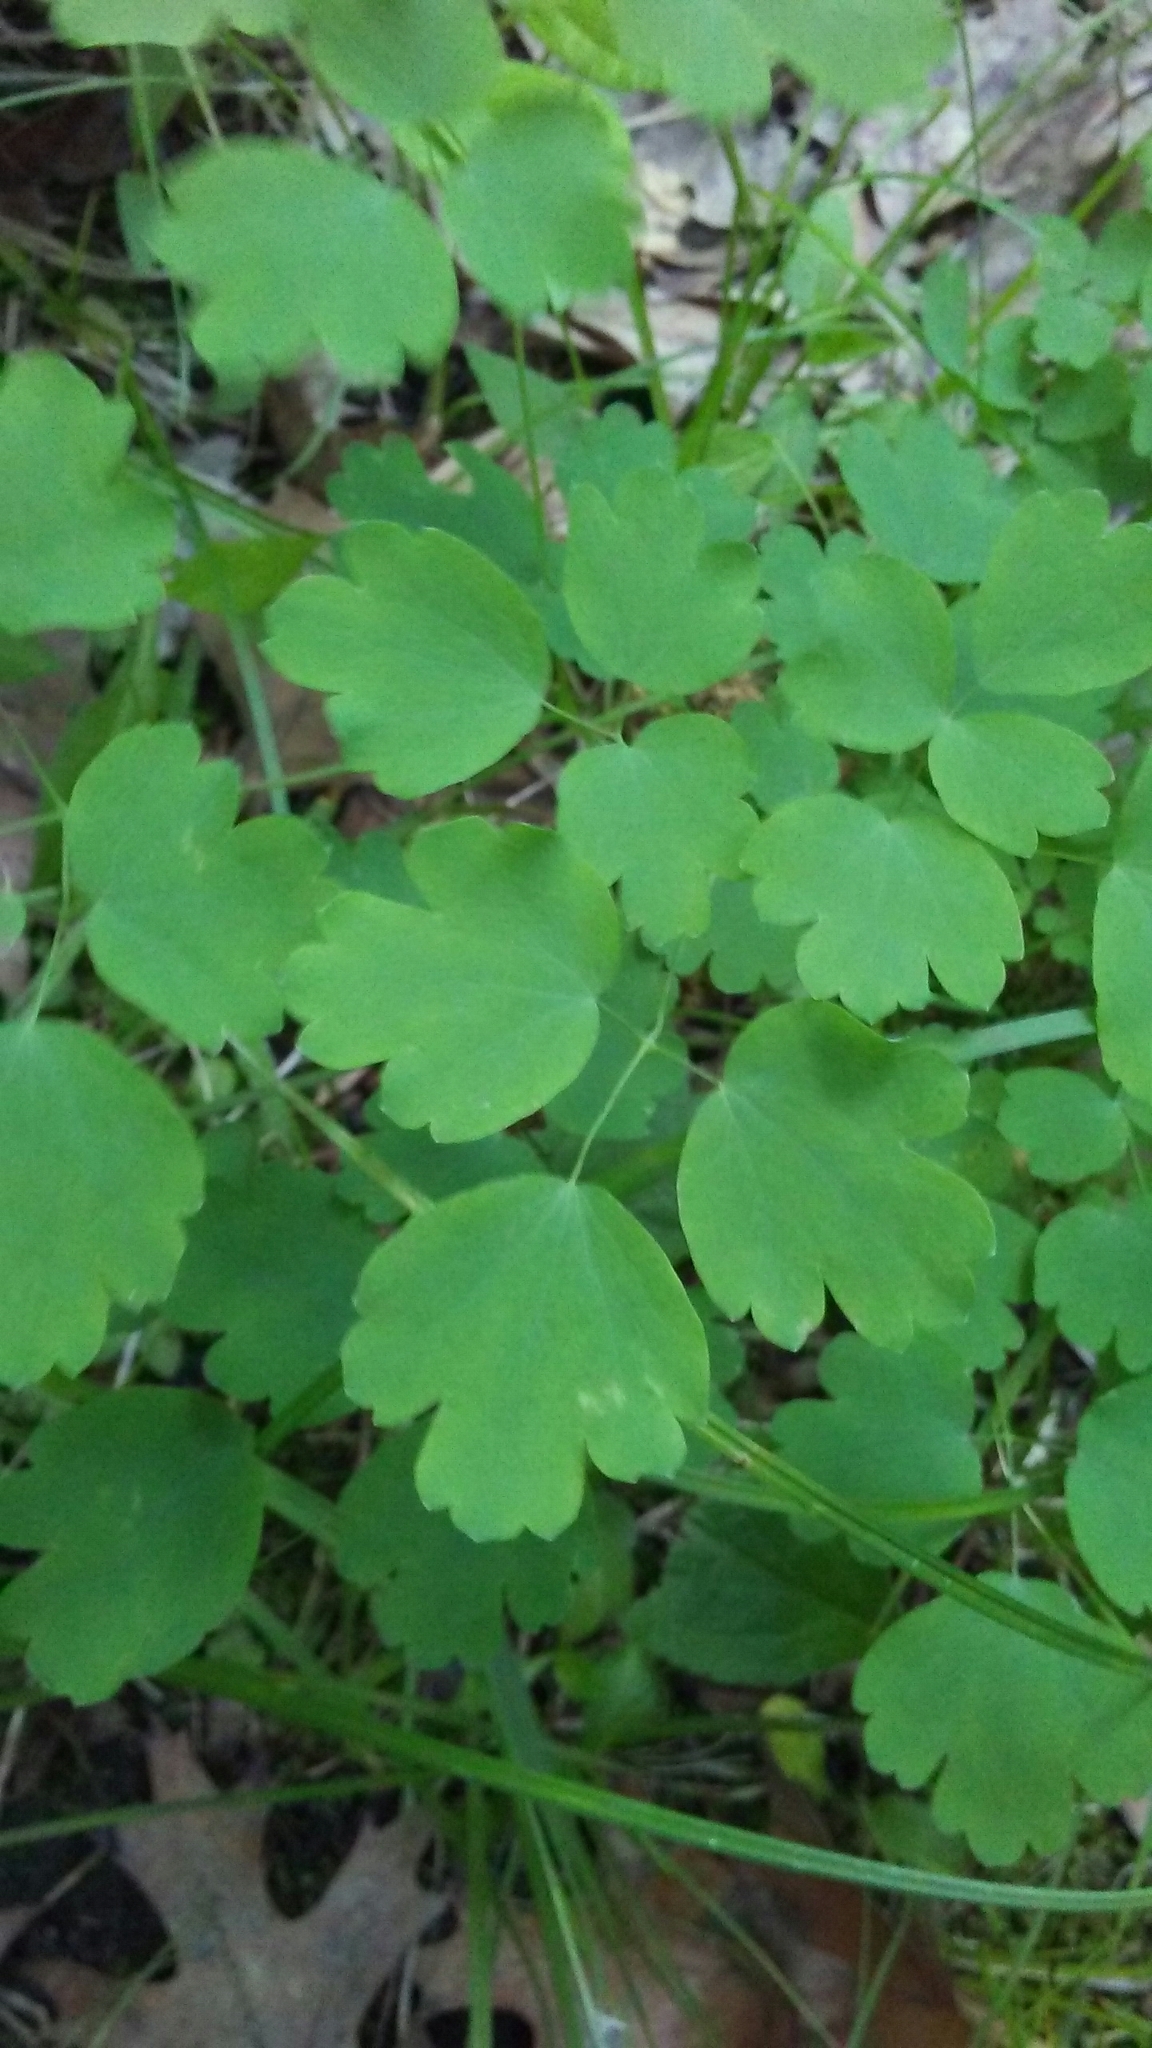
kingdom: Plantae
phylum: Tracheophyta
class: Magnoliopsida
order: Ranunculales
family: Ranunculaceae
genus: Thalictrum
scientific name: Thalictrum dioicum
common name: Early meadow-rue
